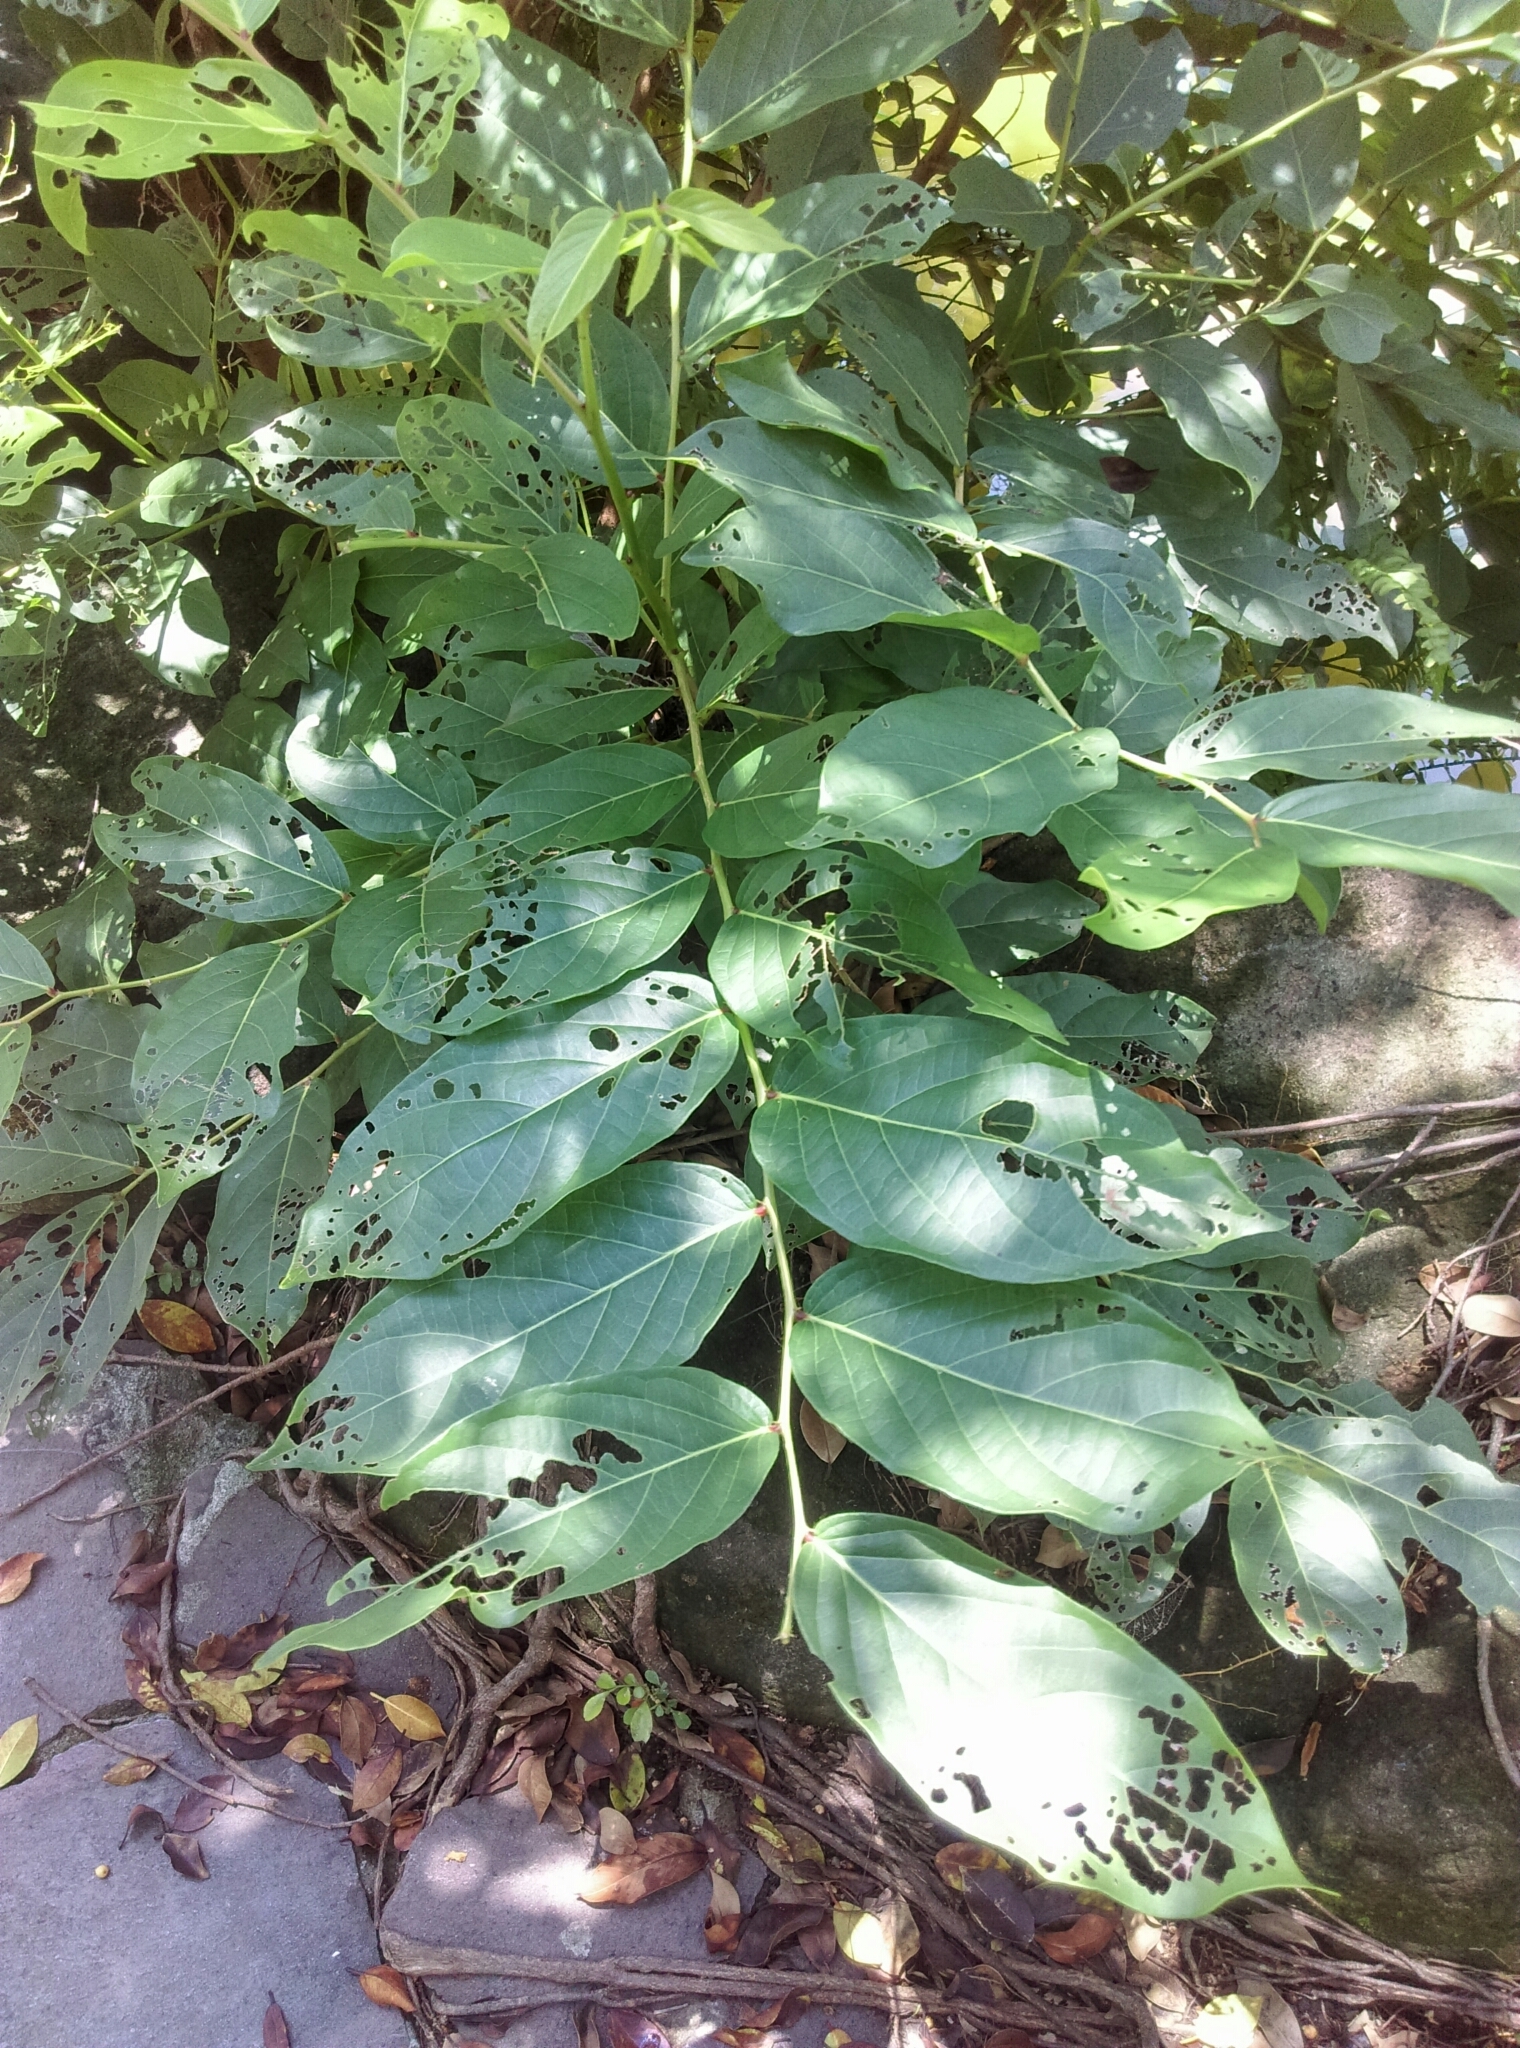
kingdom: Plantae
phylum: Tracheophyta
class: Magnoliopsida
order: Malpighiales
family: Phyllanthaceae
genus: Glochidion
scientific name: Glochidion zeylanicum
